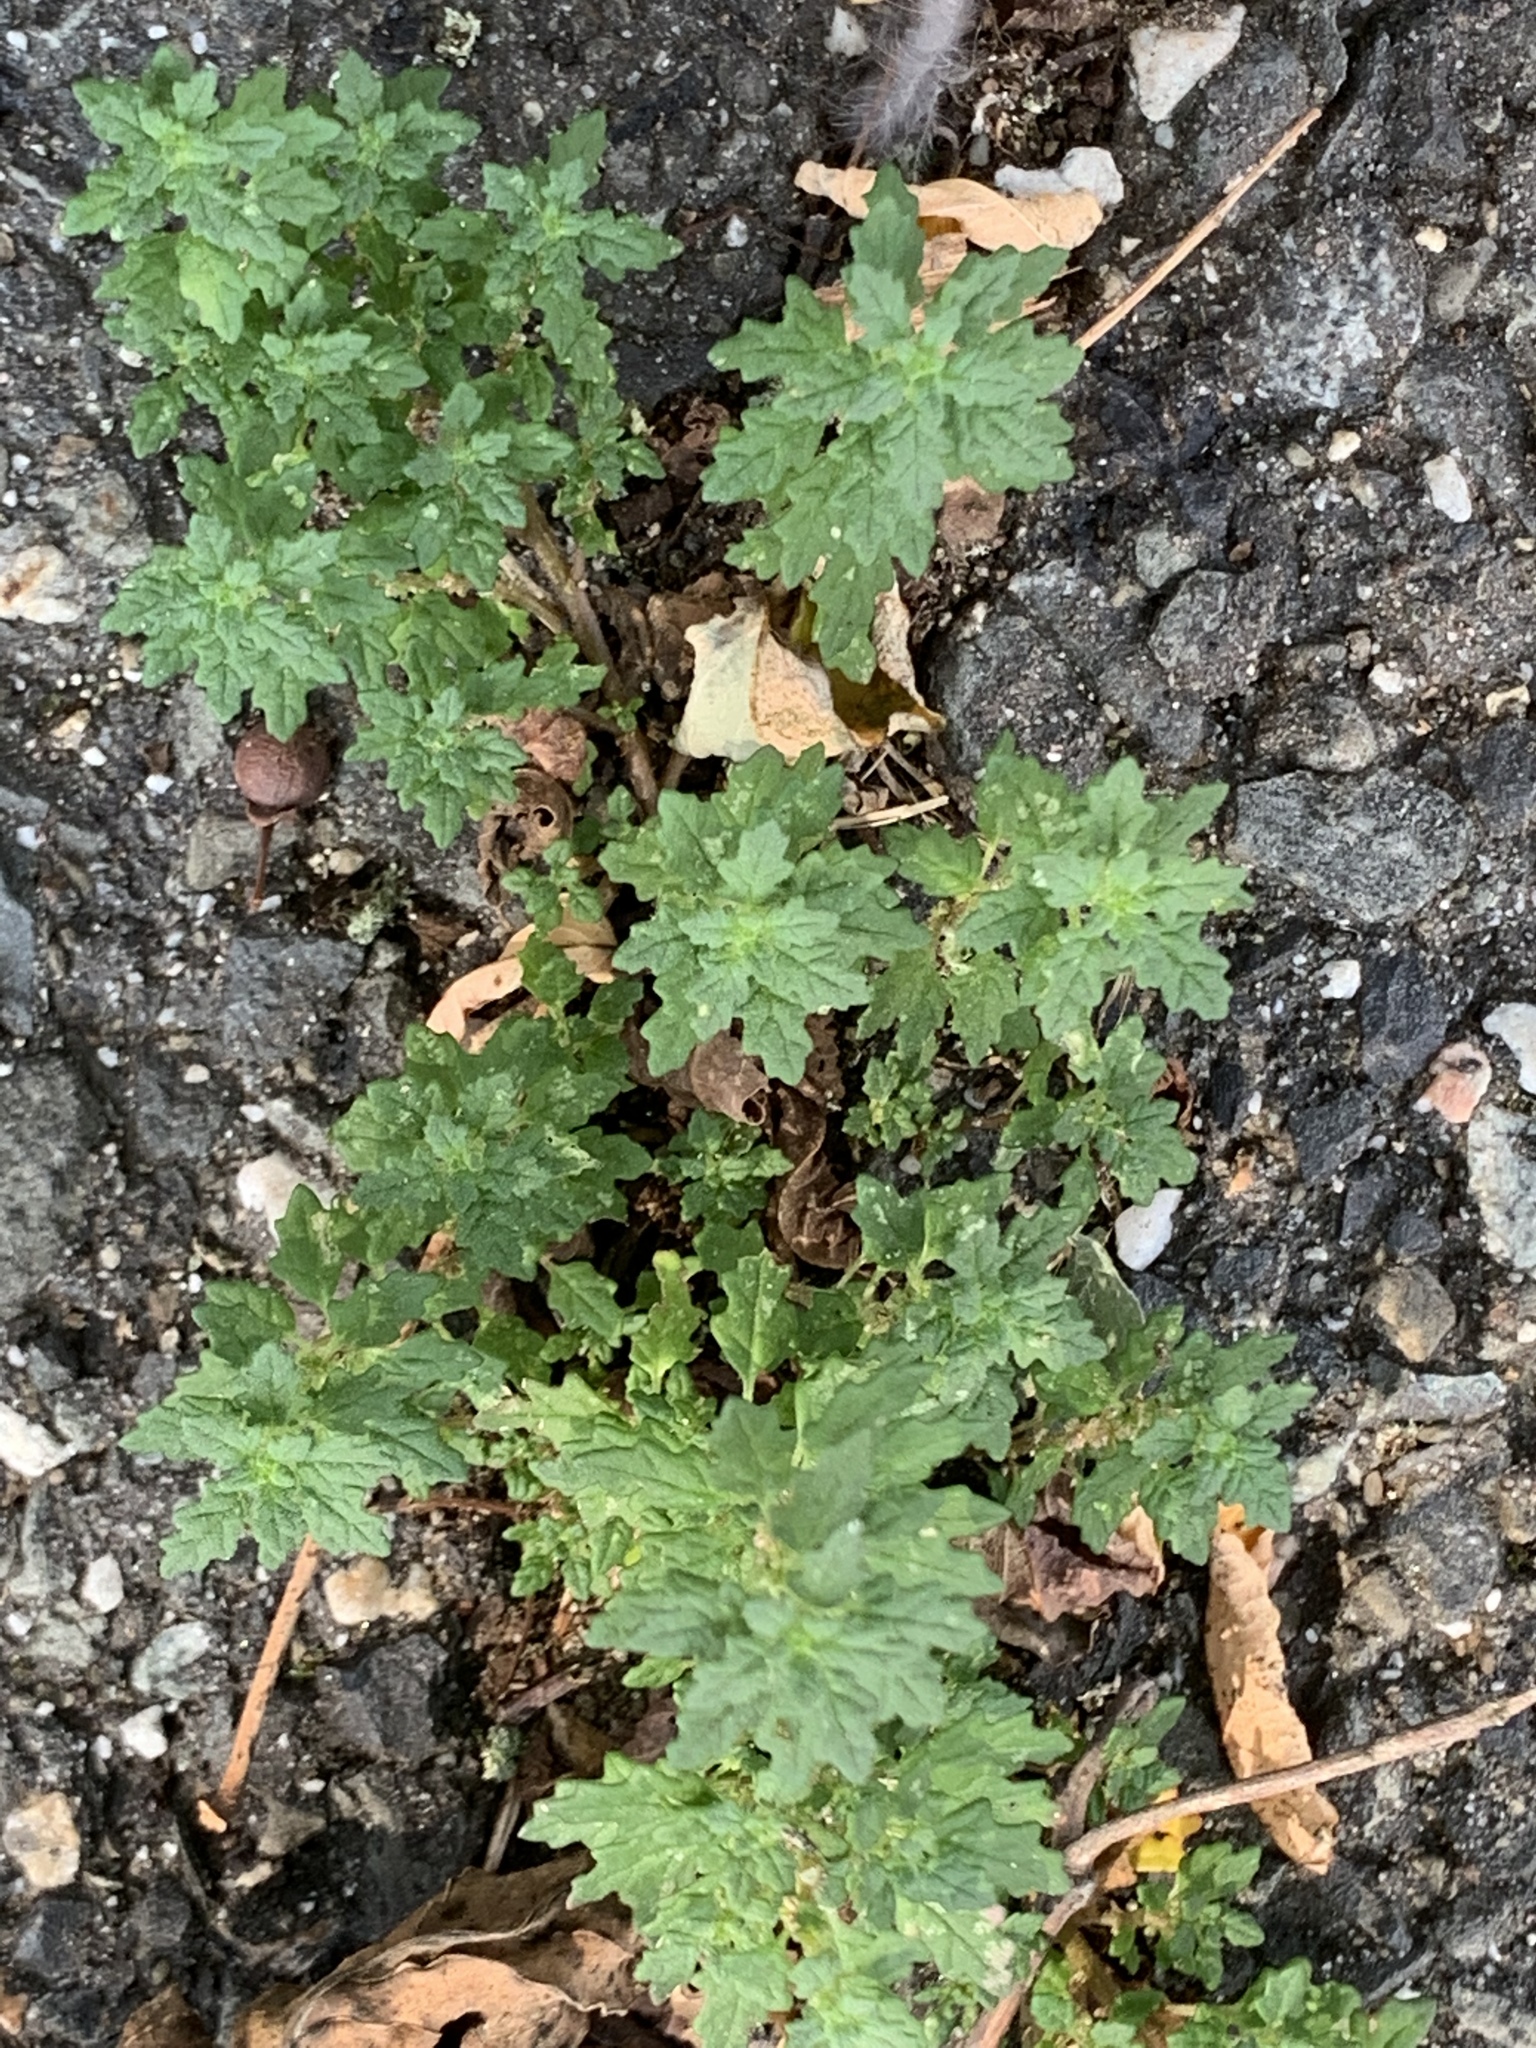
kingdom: Plantae
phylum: Tracheophyta
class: Magnoliopsida
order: Caryophyllales
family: Amaranthaceae
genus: Dysphania
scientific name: Dysphania pumilio
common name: Clammy goosefoot
